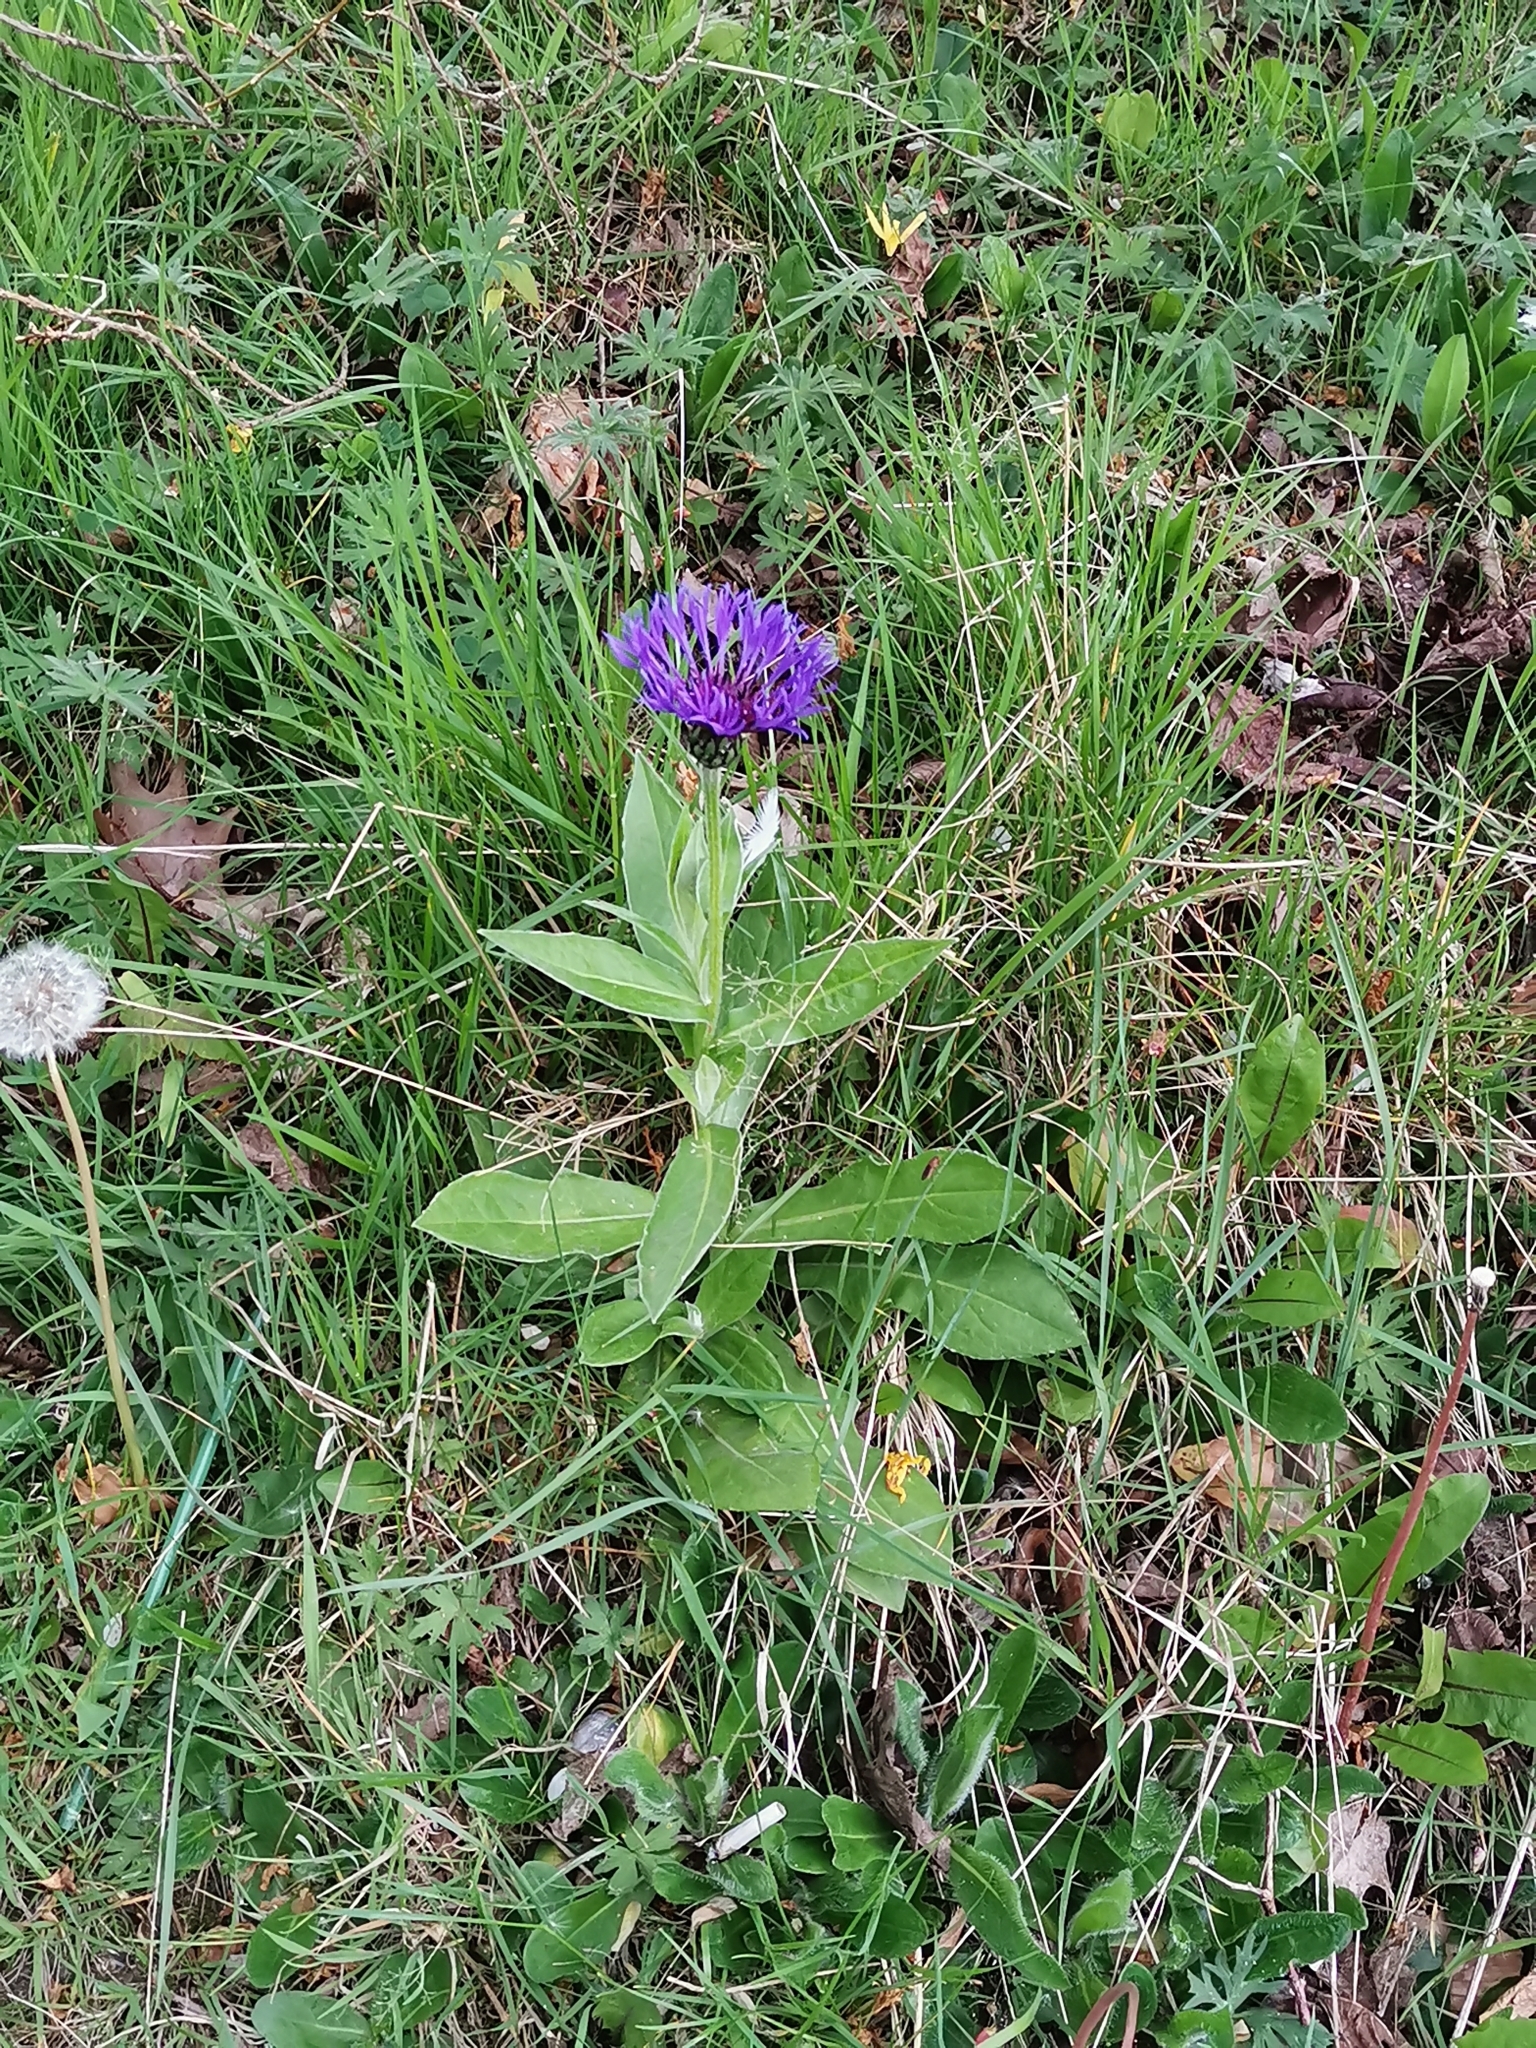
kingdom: Plantae
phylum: Tracheophyta
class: Magnoliopsida
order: Asterales
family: Asteraceae
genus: Centaurea
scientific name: Centaurea montana
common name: Perennial cornflower
